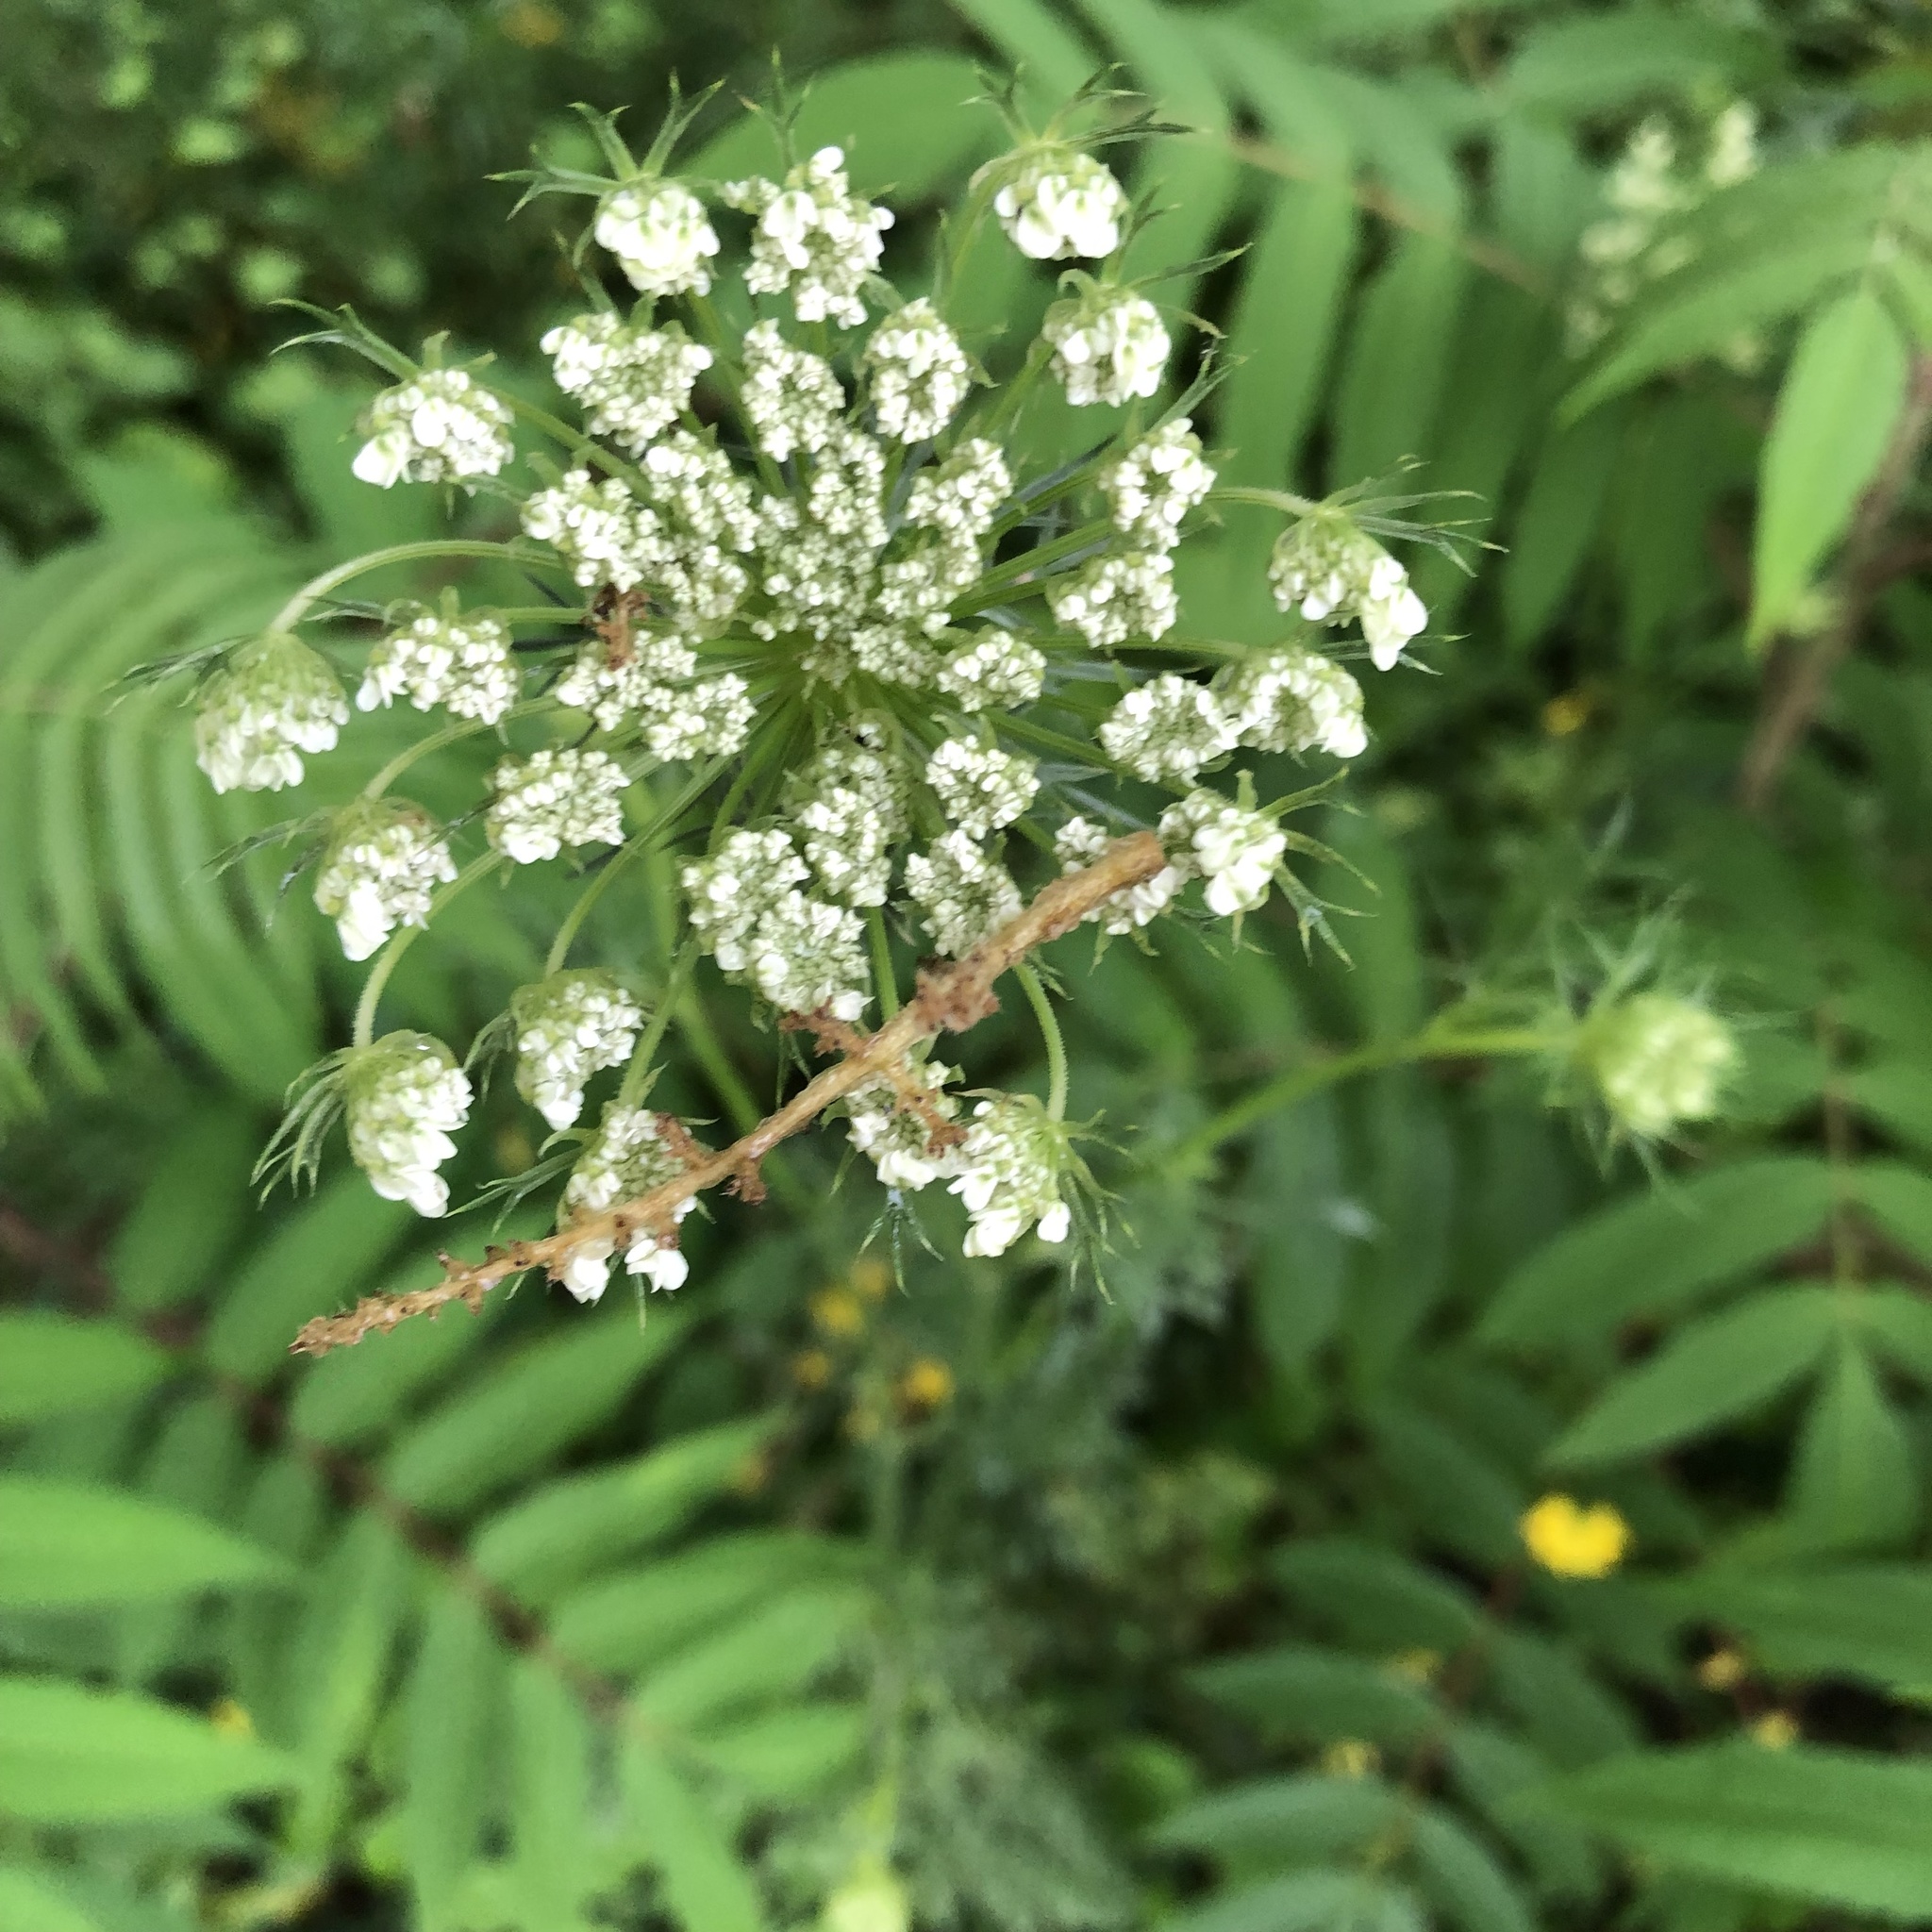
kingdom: Plantae
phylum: Tracheophyta
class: Magnoliopsida
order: Apiales
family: Apiaceae
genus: Daucus
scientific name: Daucus carota
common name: Wild carrot
